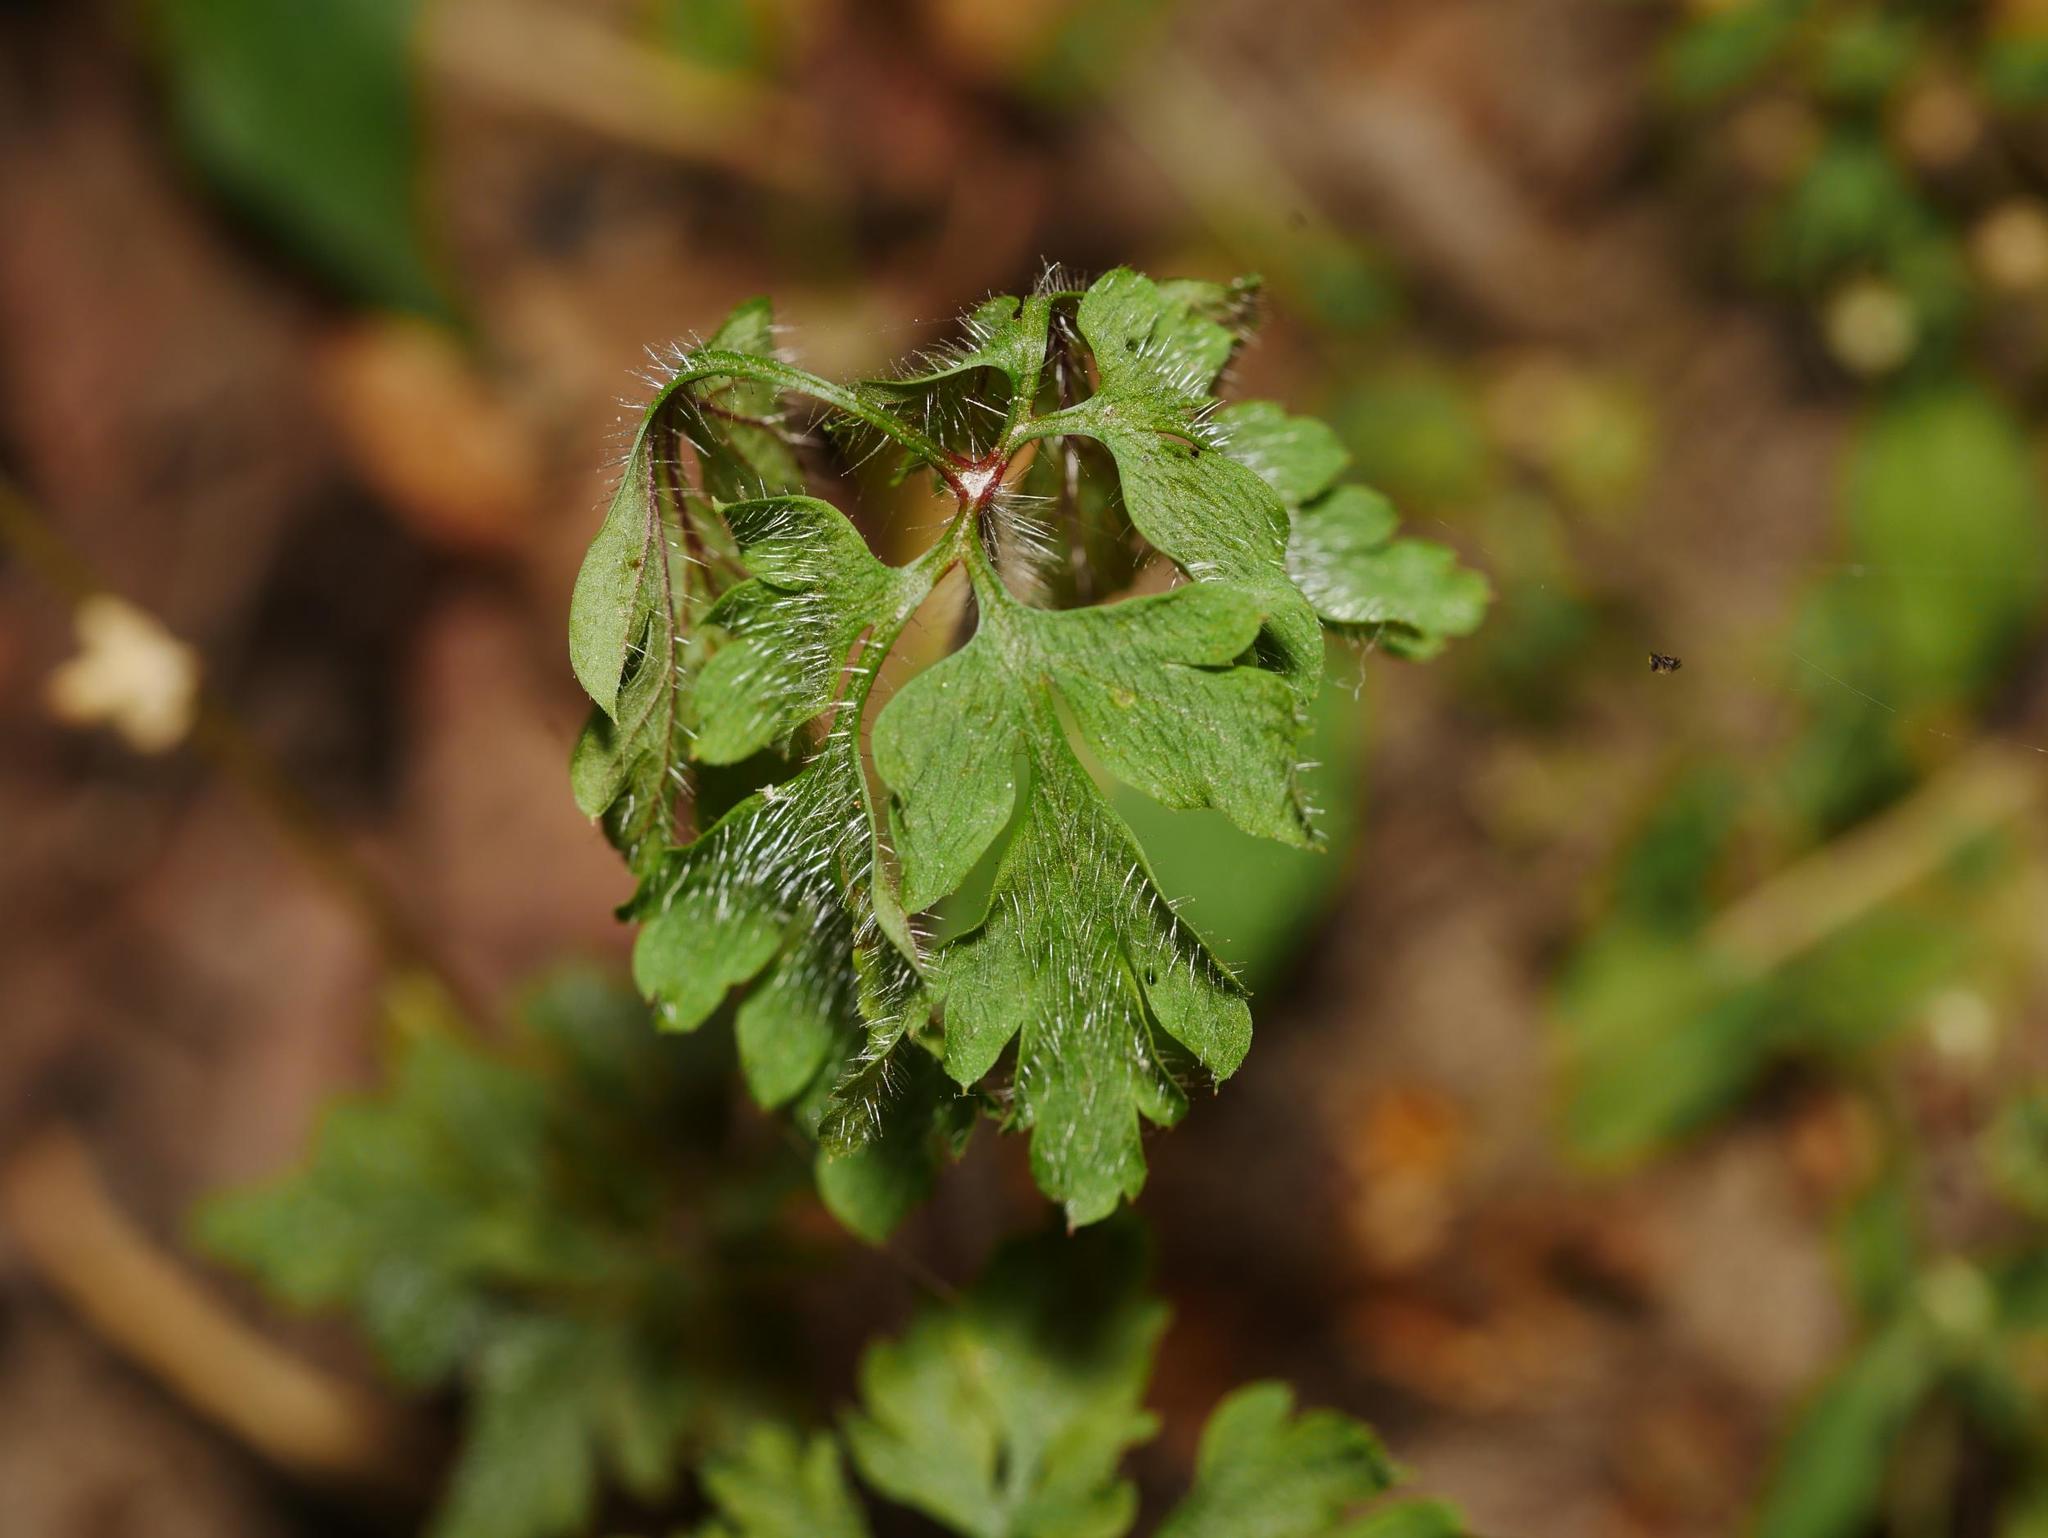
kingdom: Plantae
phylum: Tracheophyta
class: Magnoliopsida
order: Geraniales
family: Geraniaceae
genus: Geranium
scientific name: Geranium robertianum
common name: Herb-robert
